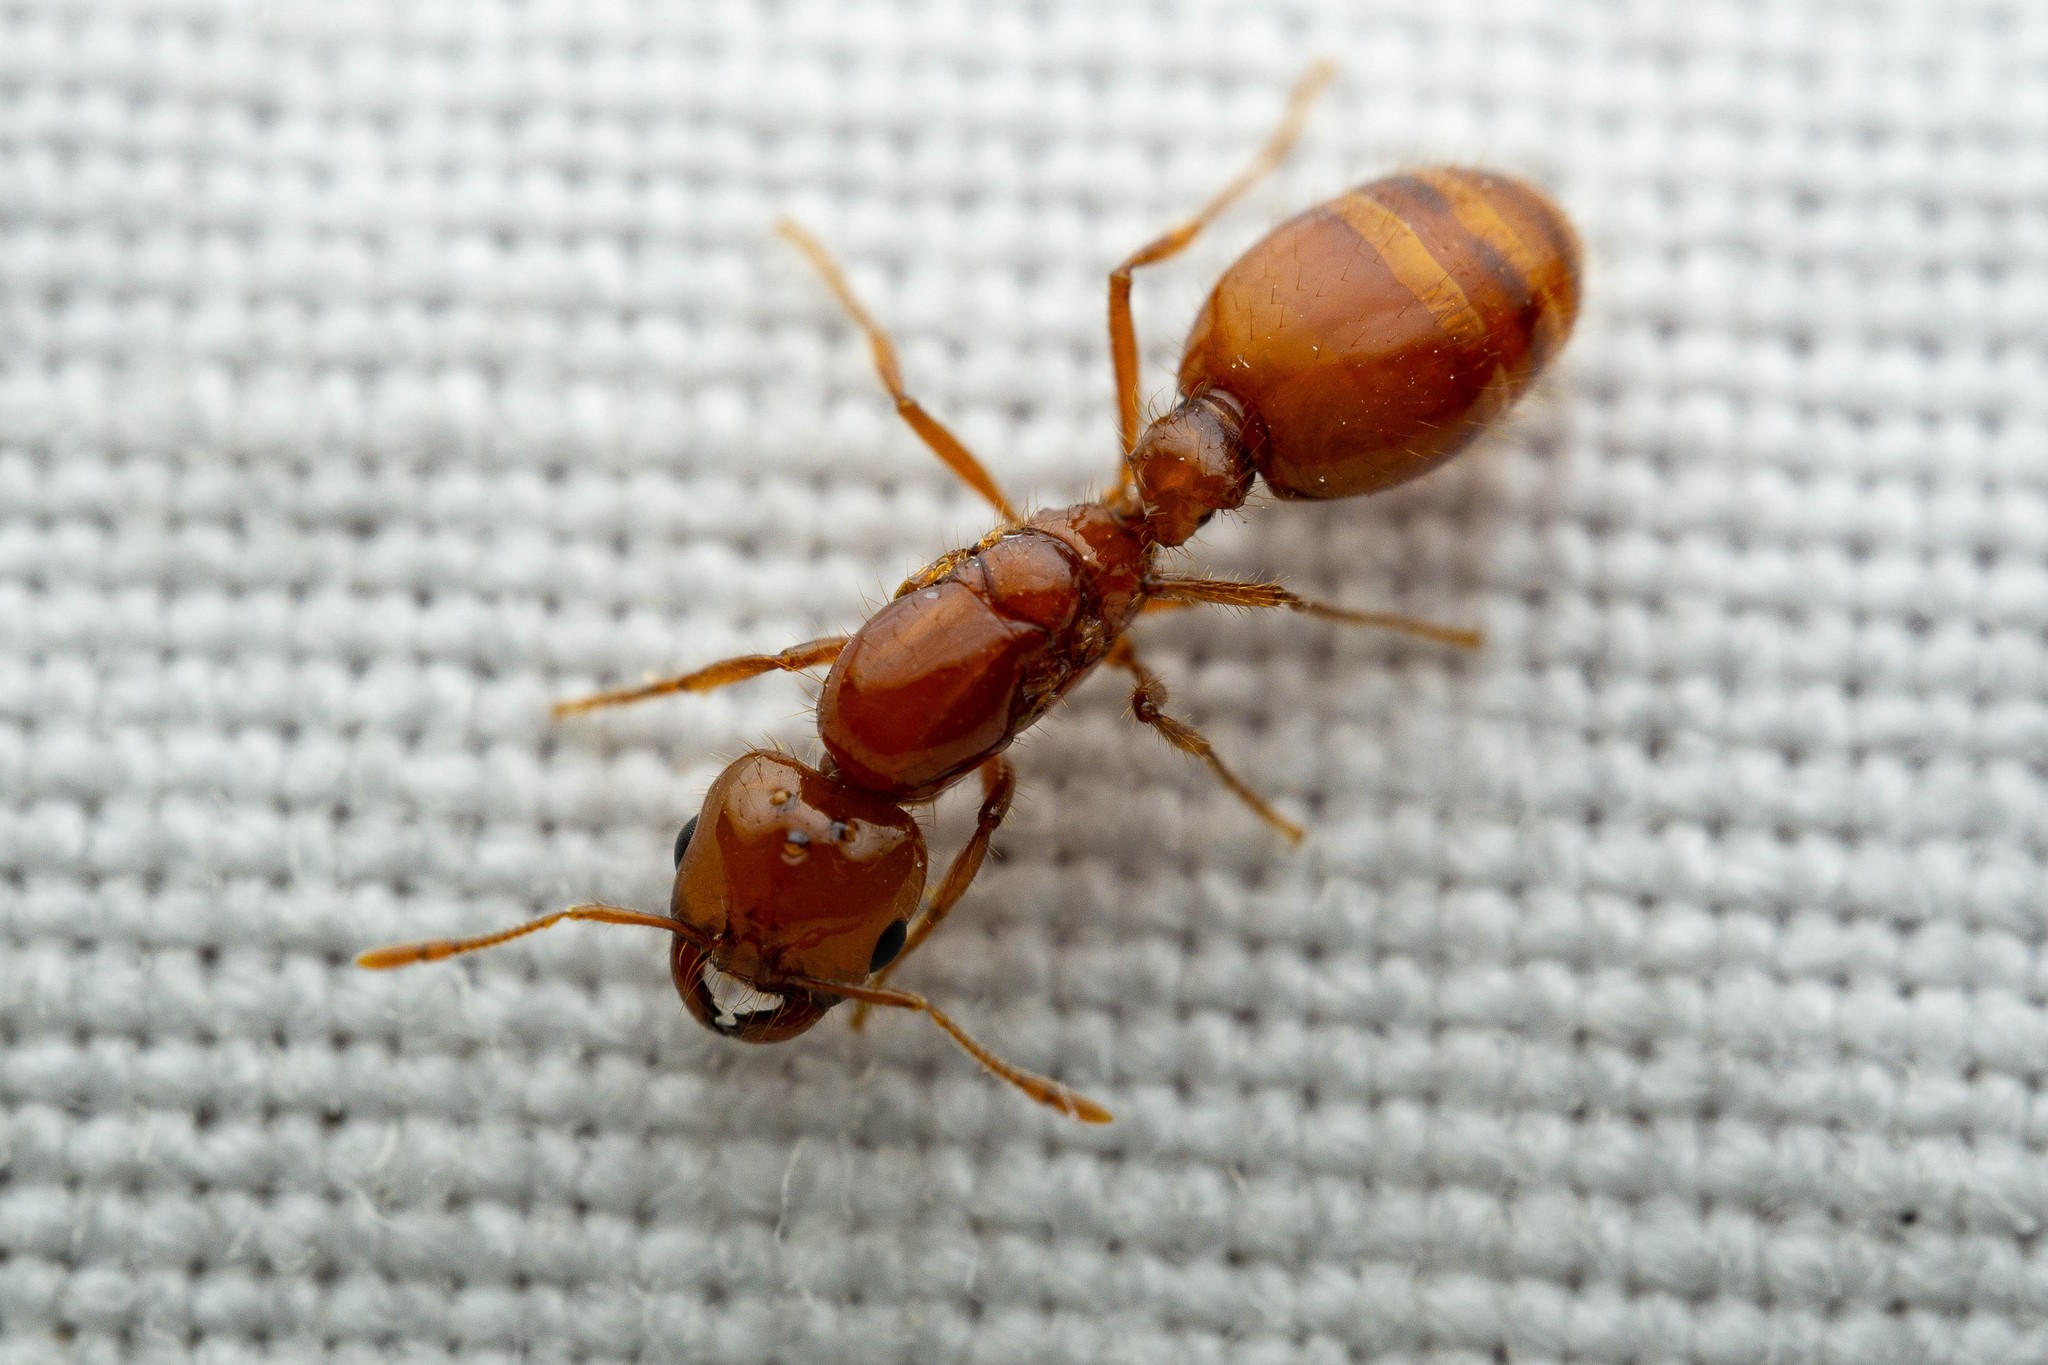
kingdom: Animalia
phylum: Arthropoda
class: Insecta
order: Hymenoptera
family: Formicidae
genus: Solenopsis
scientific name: Solenopsis amblychila
